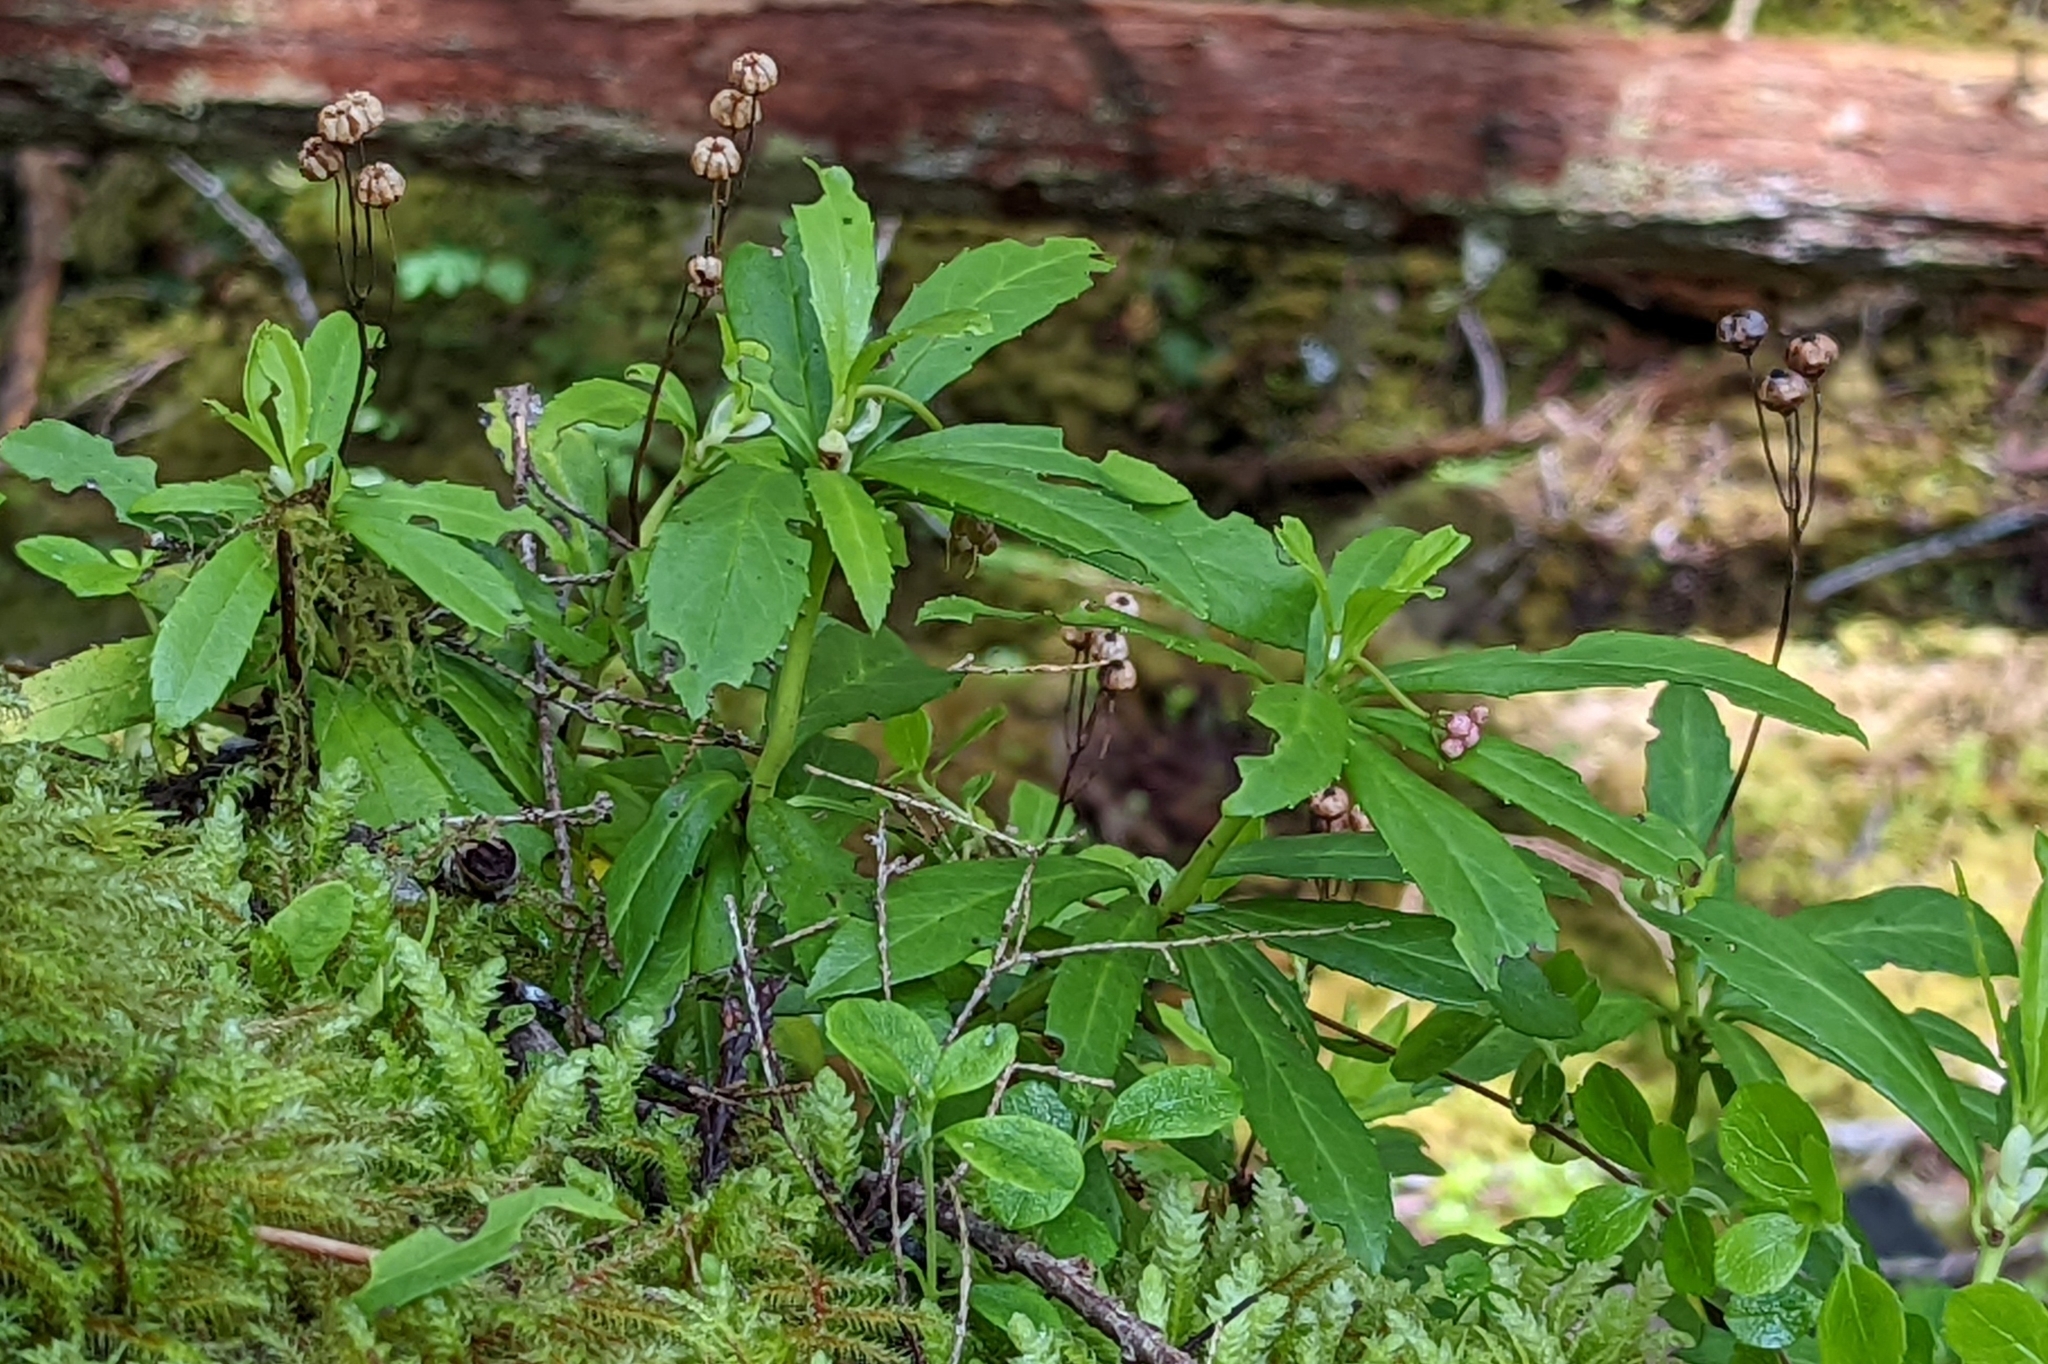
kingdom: Plantae
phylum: Tracheophyta
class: Magnoliopsida
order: Ericales
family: Ericaceae
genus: Chimaphila
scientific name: Chimaphila umbellata
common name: Pipsissewa
